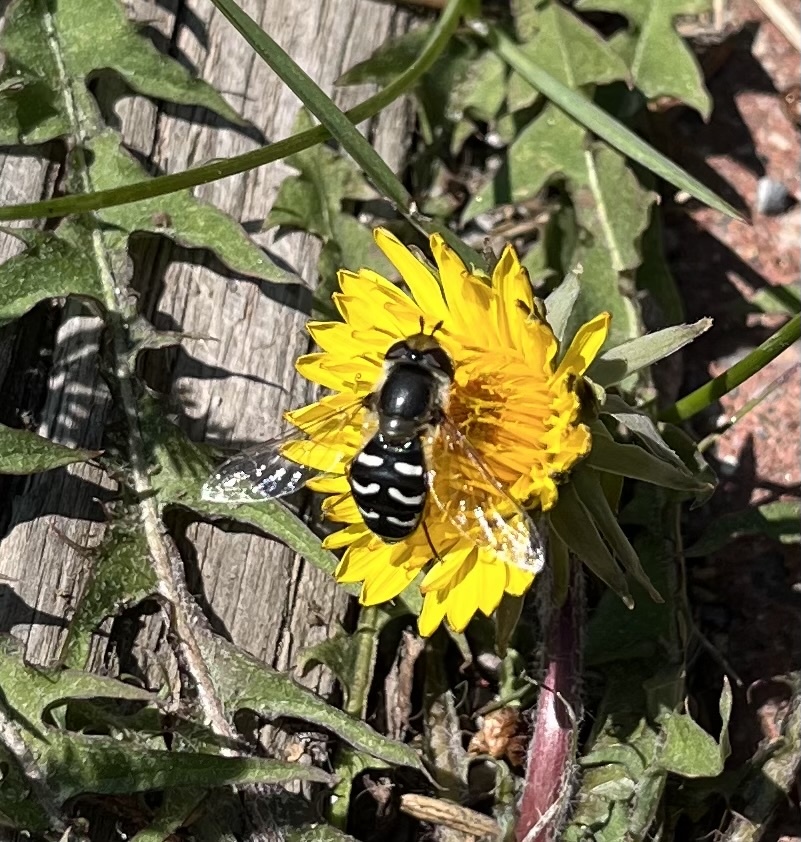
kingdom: Animalia
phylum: Arthropoda
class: Insecta
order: Diptera
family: Syrphidae
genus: Scaeva
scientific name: Scaeva affinis
